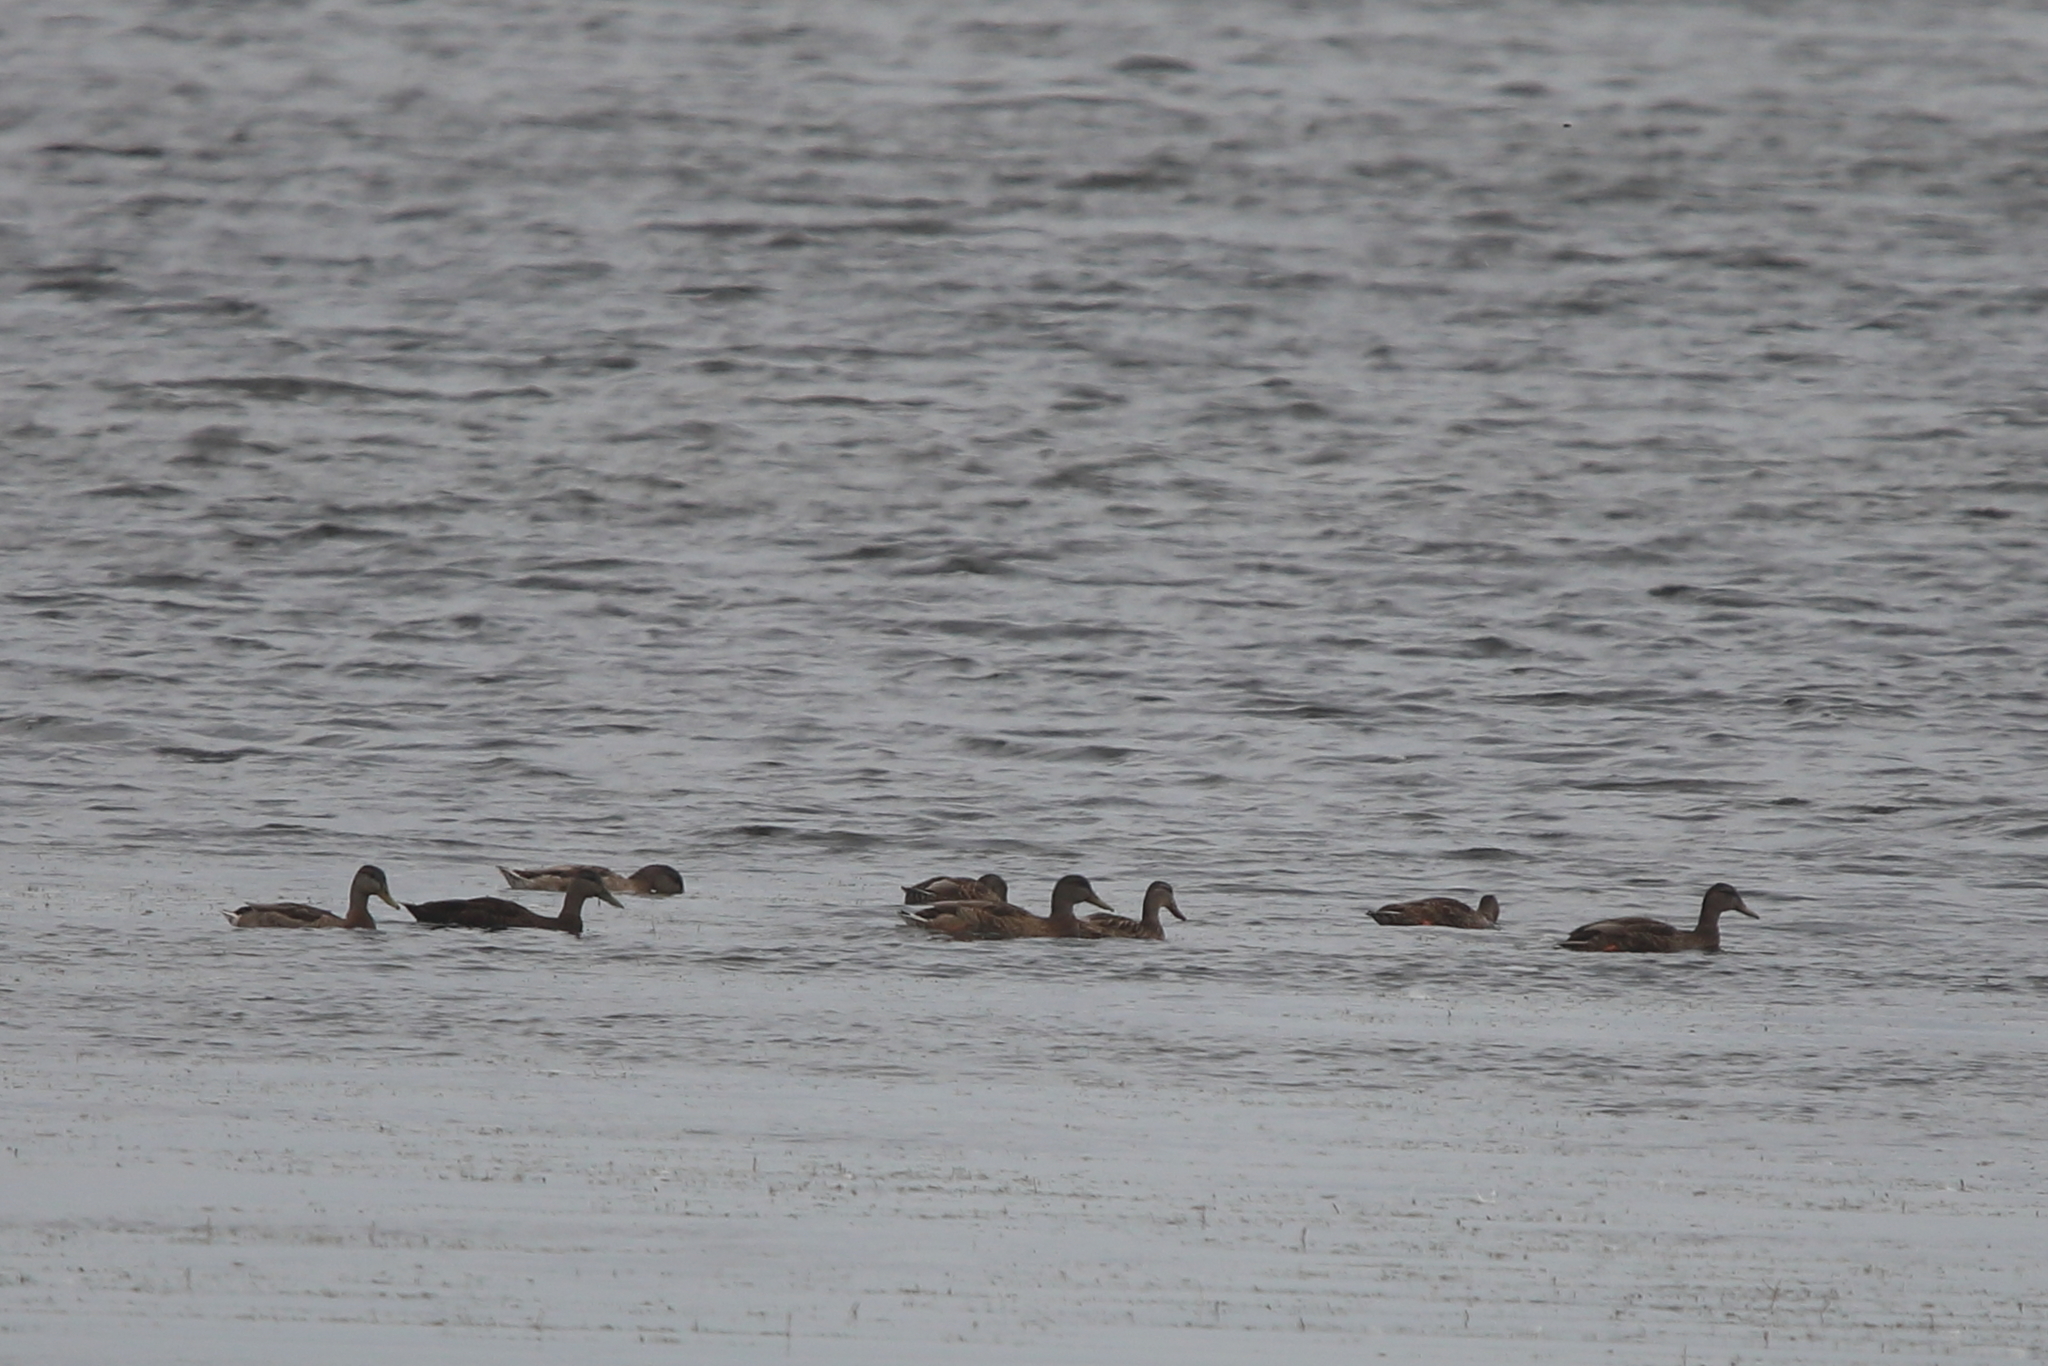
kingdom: Animalia
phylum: Chordata
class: Aves
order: Anseriformes
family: Anatidae
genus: Anas
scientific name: Anas rubripes
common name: American black duck
